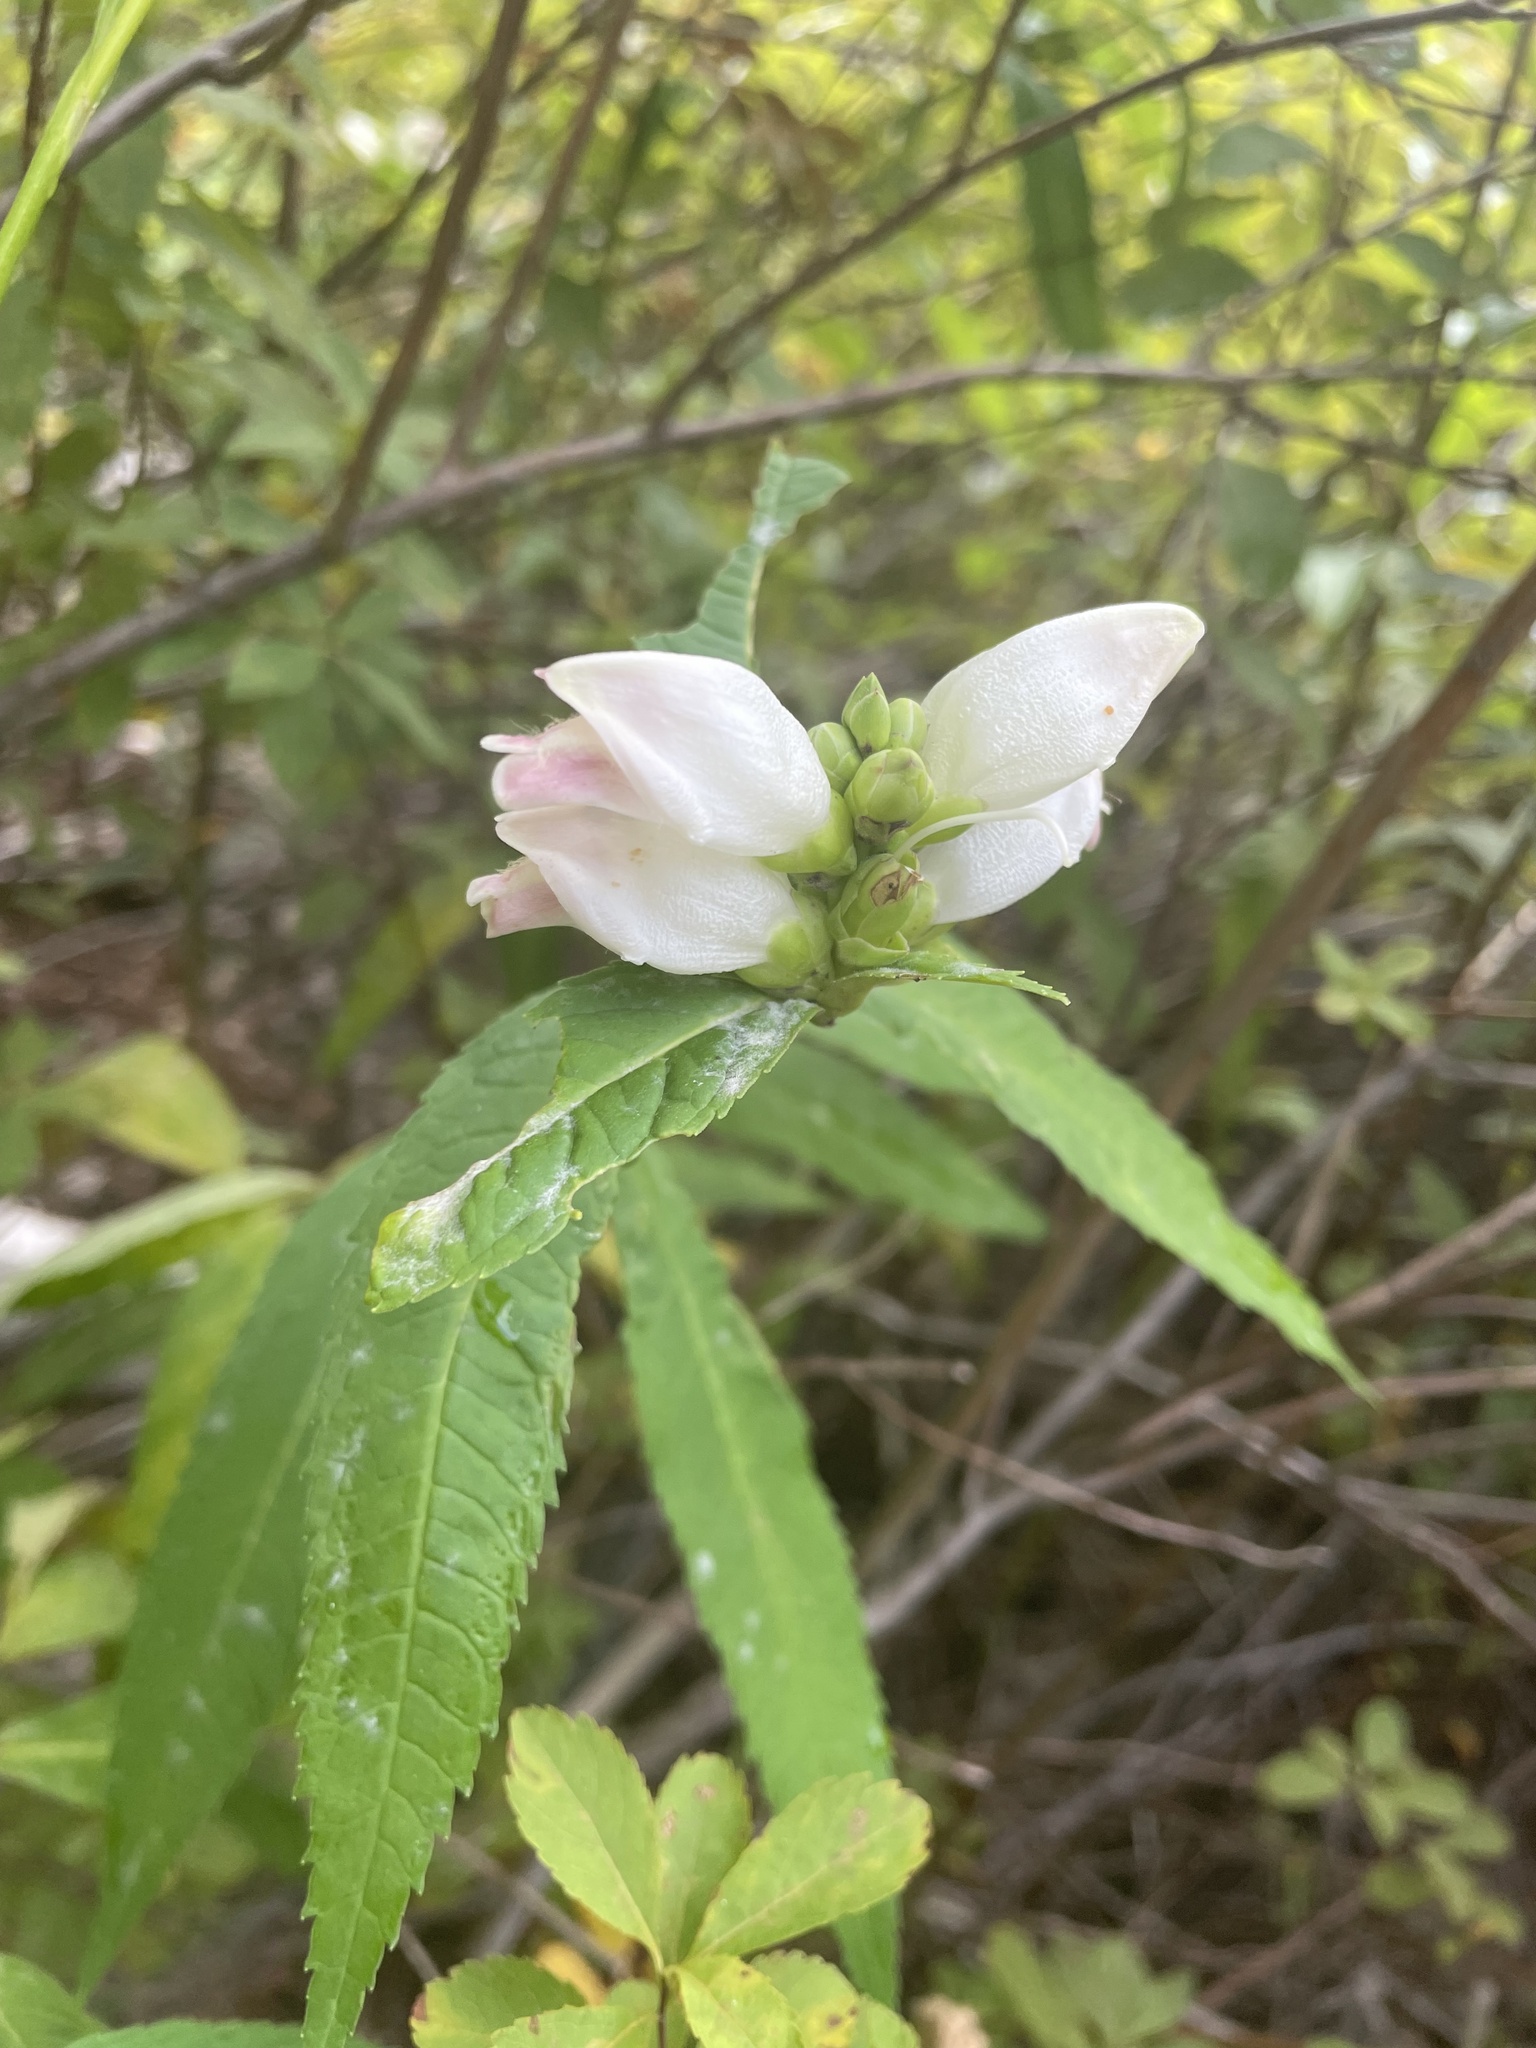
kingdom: Plantae
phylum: Tracheophyta
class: Magnoliopsida
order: Lamiales
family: Plantaginaceae
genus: Chelone
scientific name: Chelone glabra
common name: Snakehead
